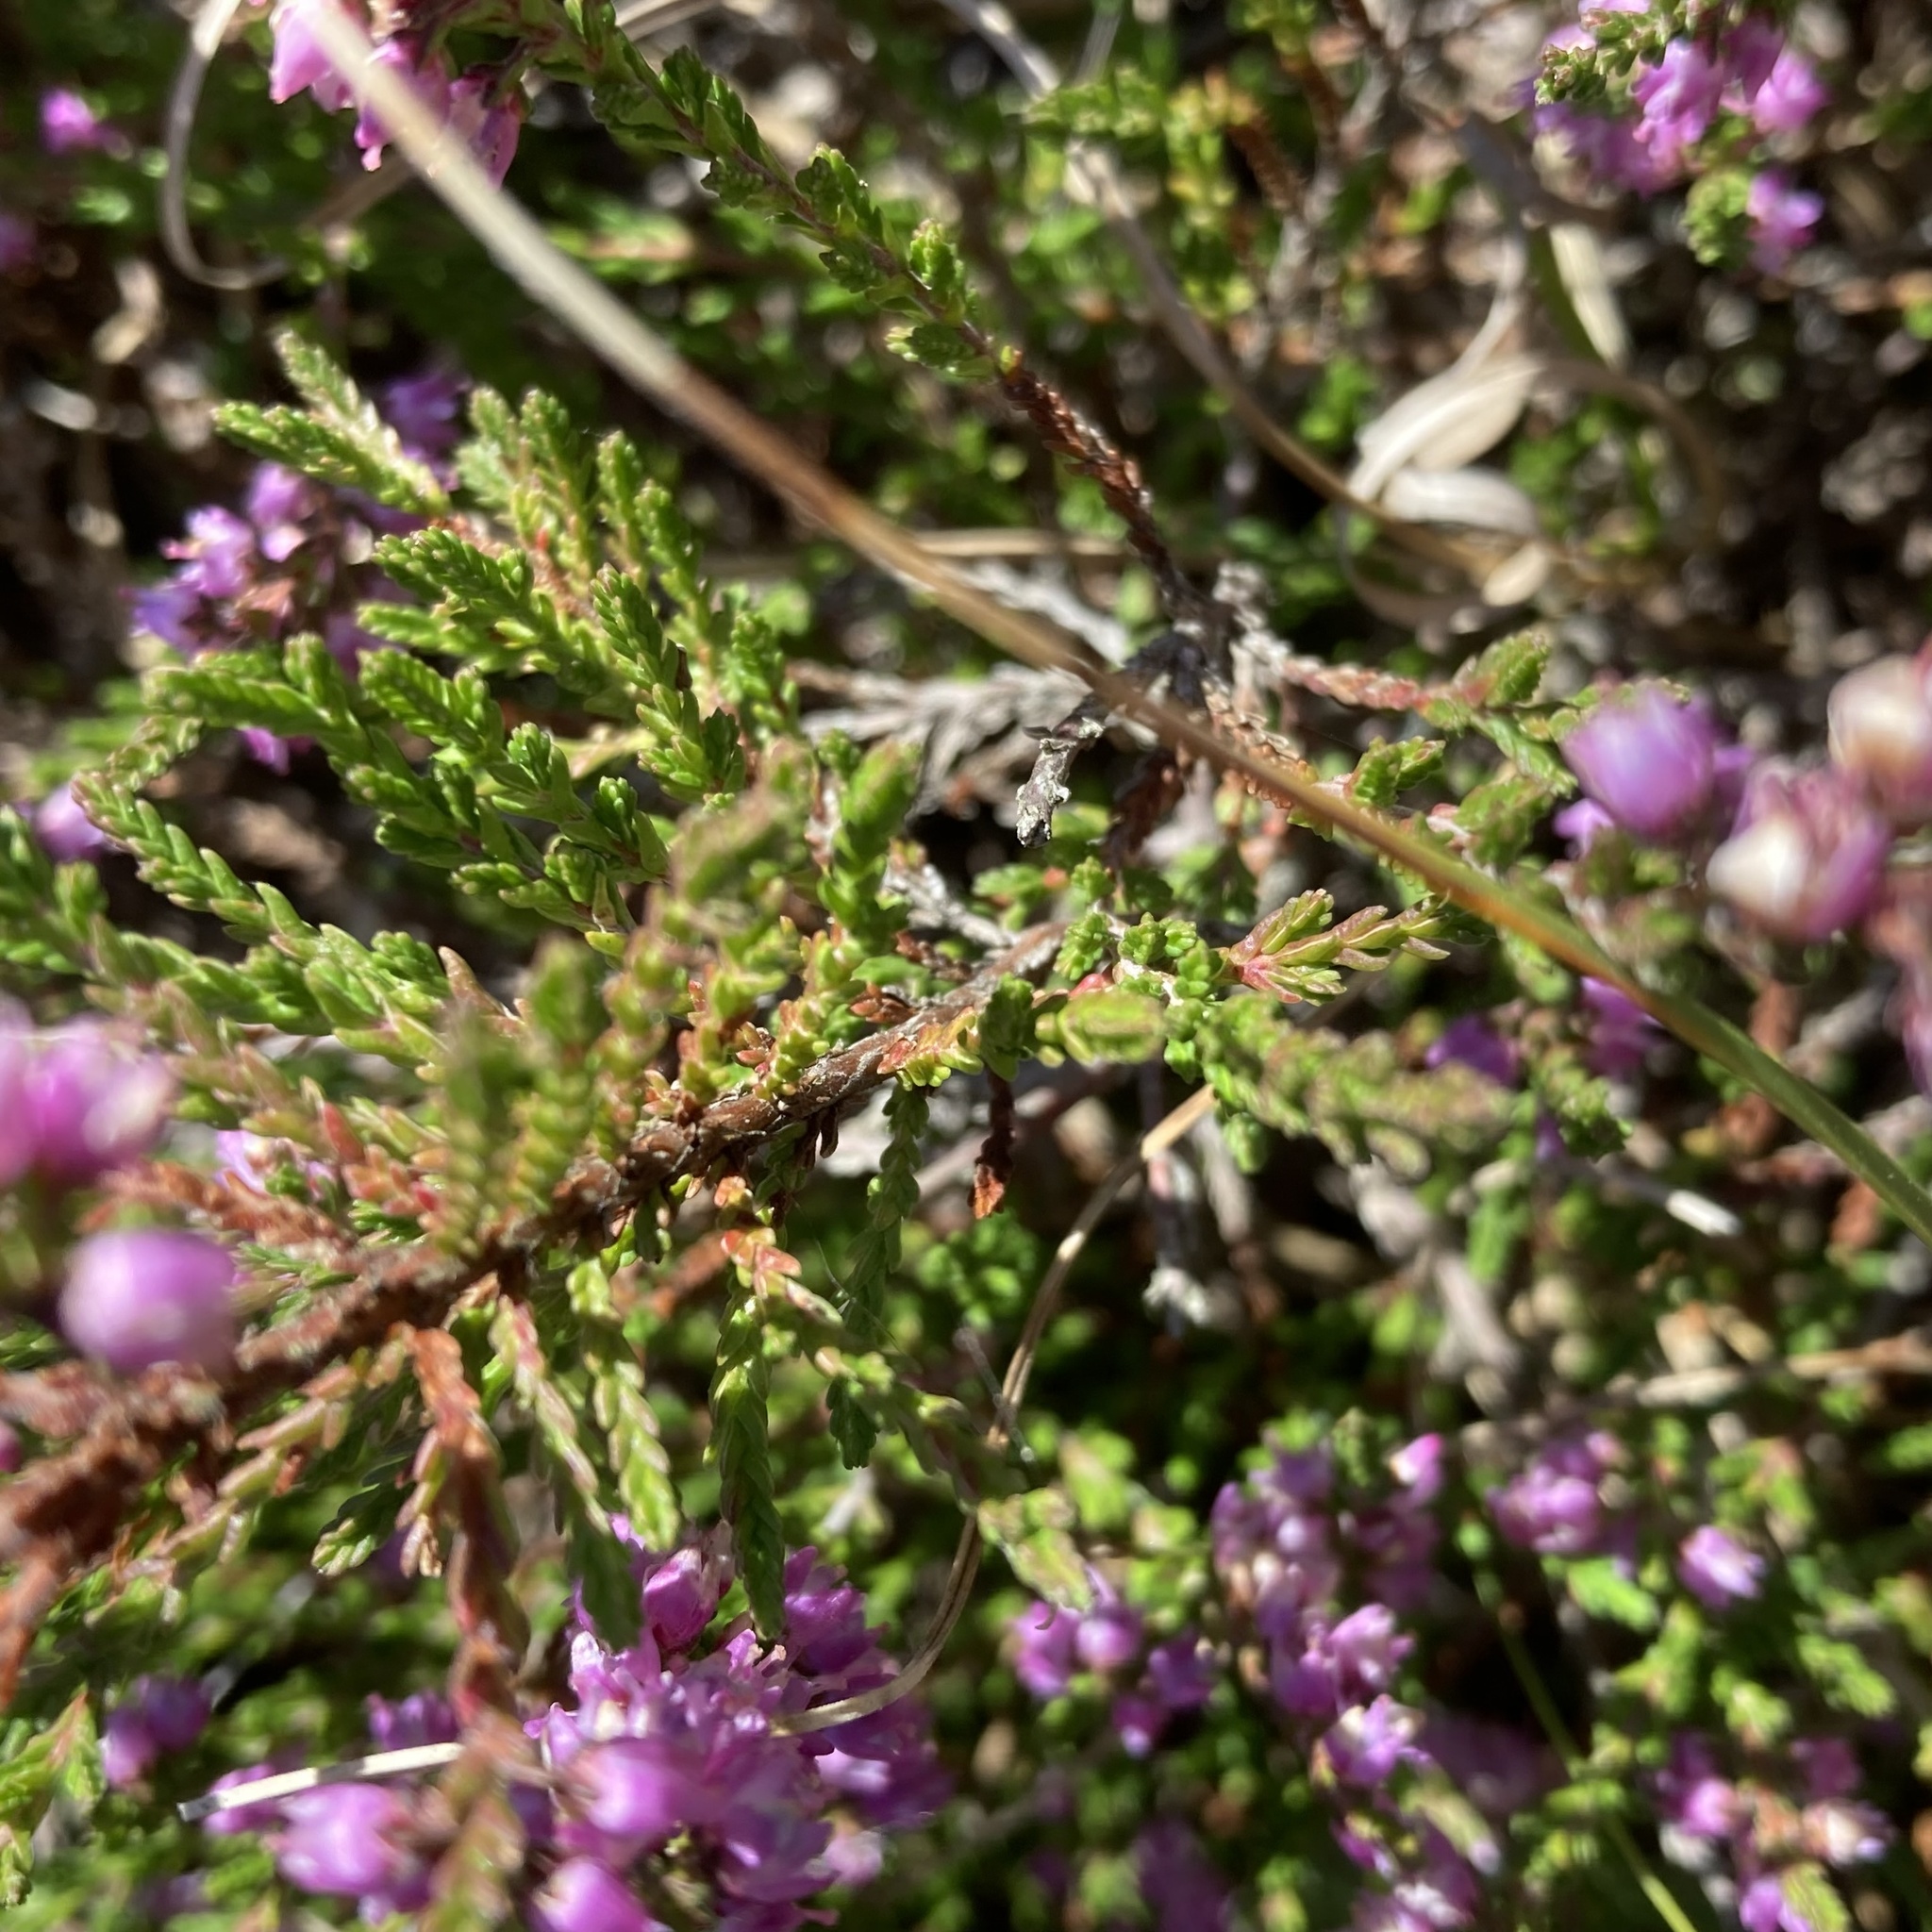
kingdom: Plantae
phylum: Tracheophyta
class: Magnoliopsida
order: Ericales
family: Ericaceae
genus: Calluna
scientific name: Calluna vulgaris
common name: Heather
